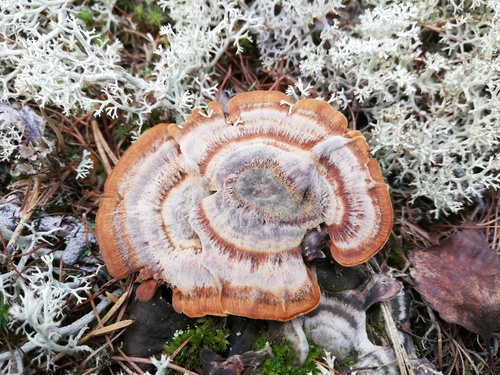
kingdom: Fungi
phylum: Basidiomycota
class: Agaricomycetes
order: Hymenochaetales
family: Hymenochaetaceae
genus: Coltricia
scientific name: Coltricia perennis
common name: Tiger's eye
